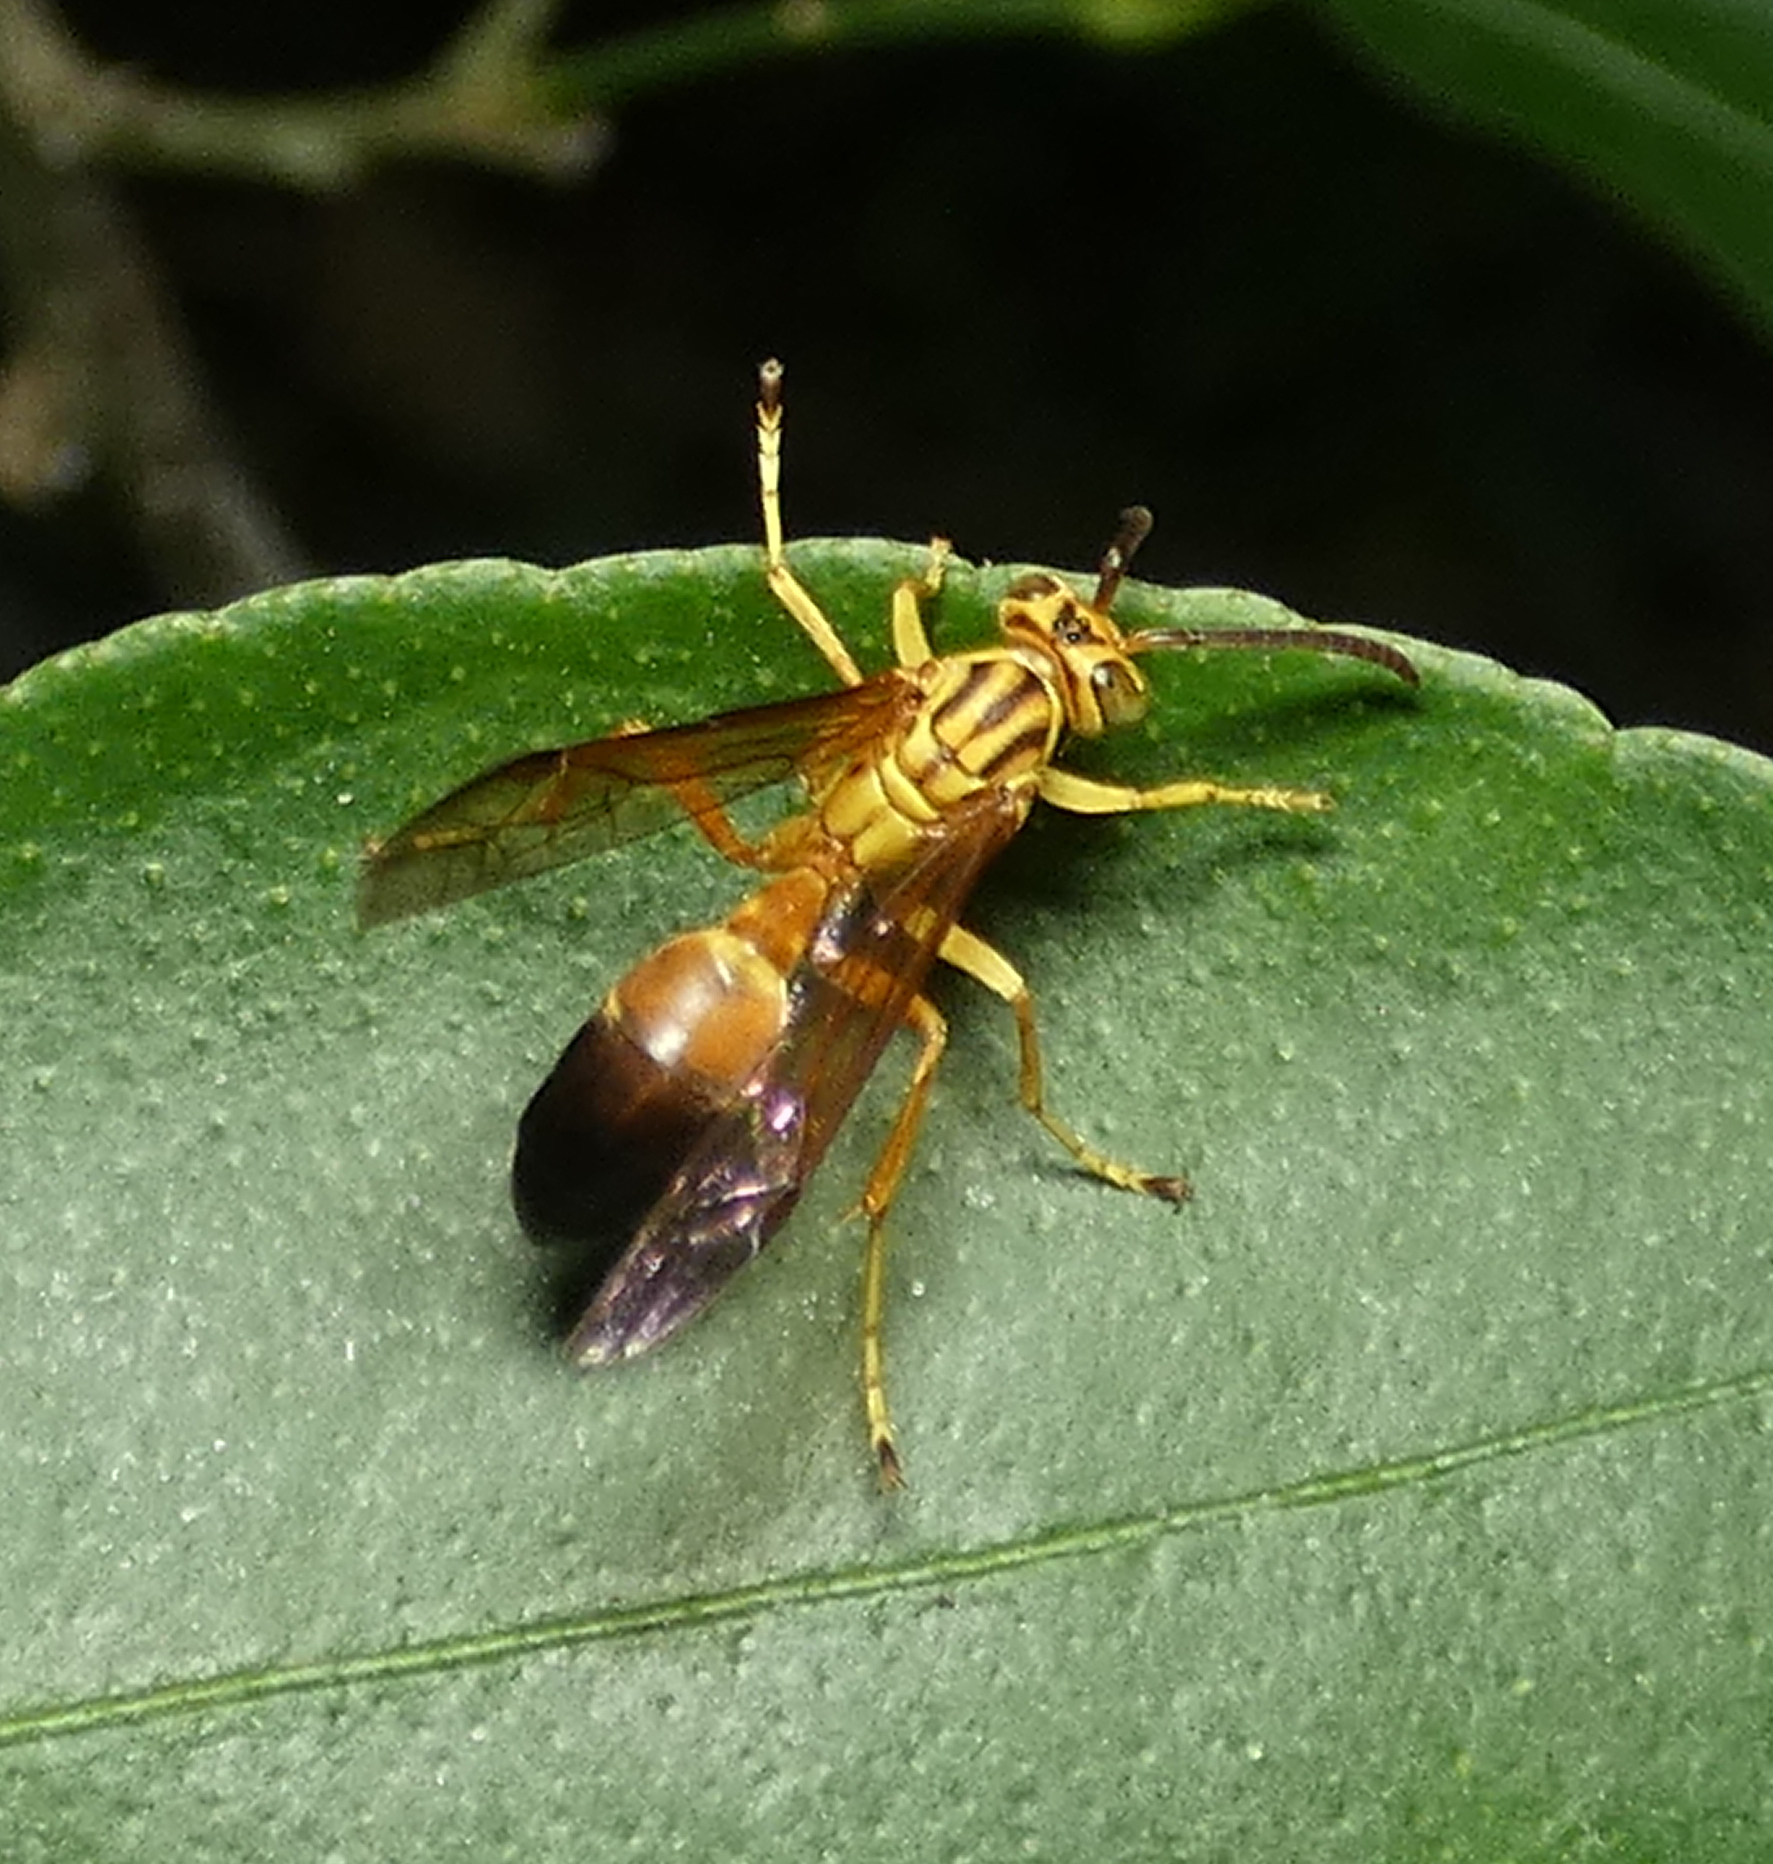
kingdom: Animalia
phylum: Arthropoda
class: Insecta
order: Hymenoptera
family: Vespidae
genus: Agelaia
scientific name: Agelaia pallipes
